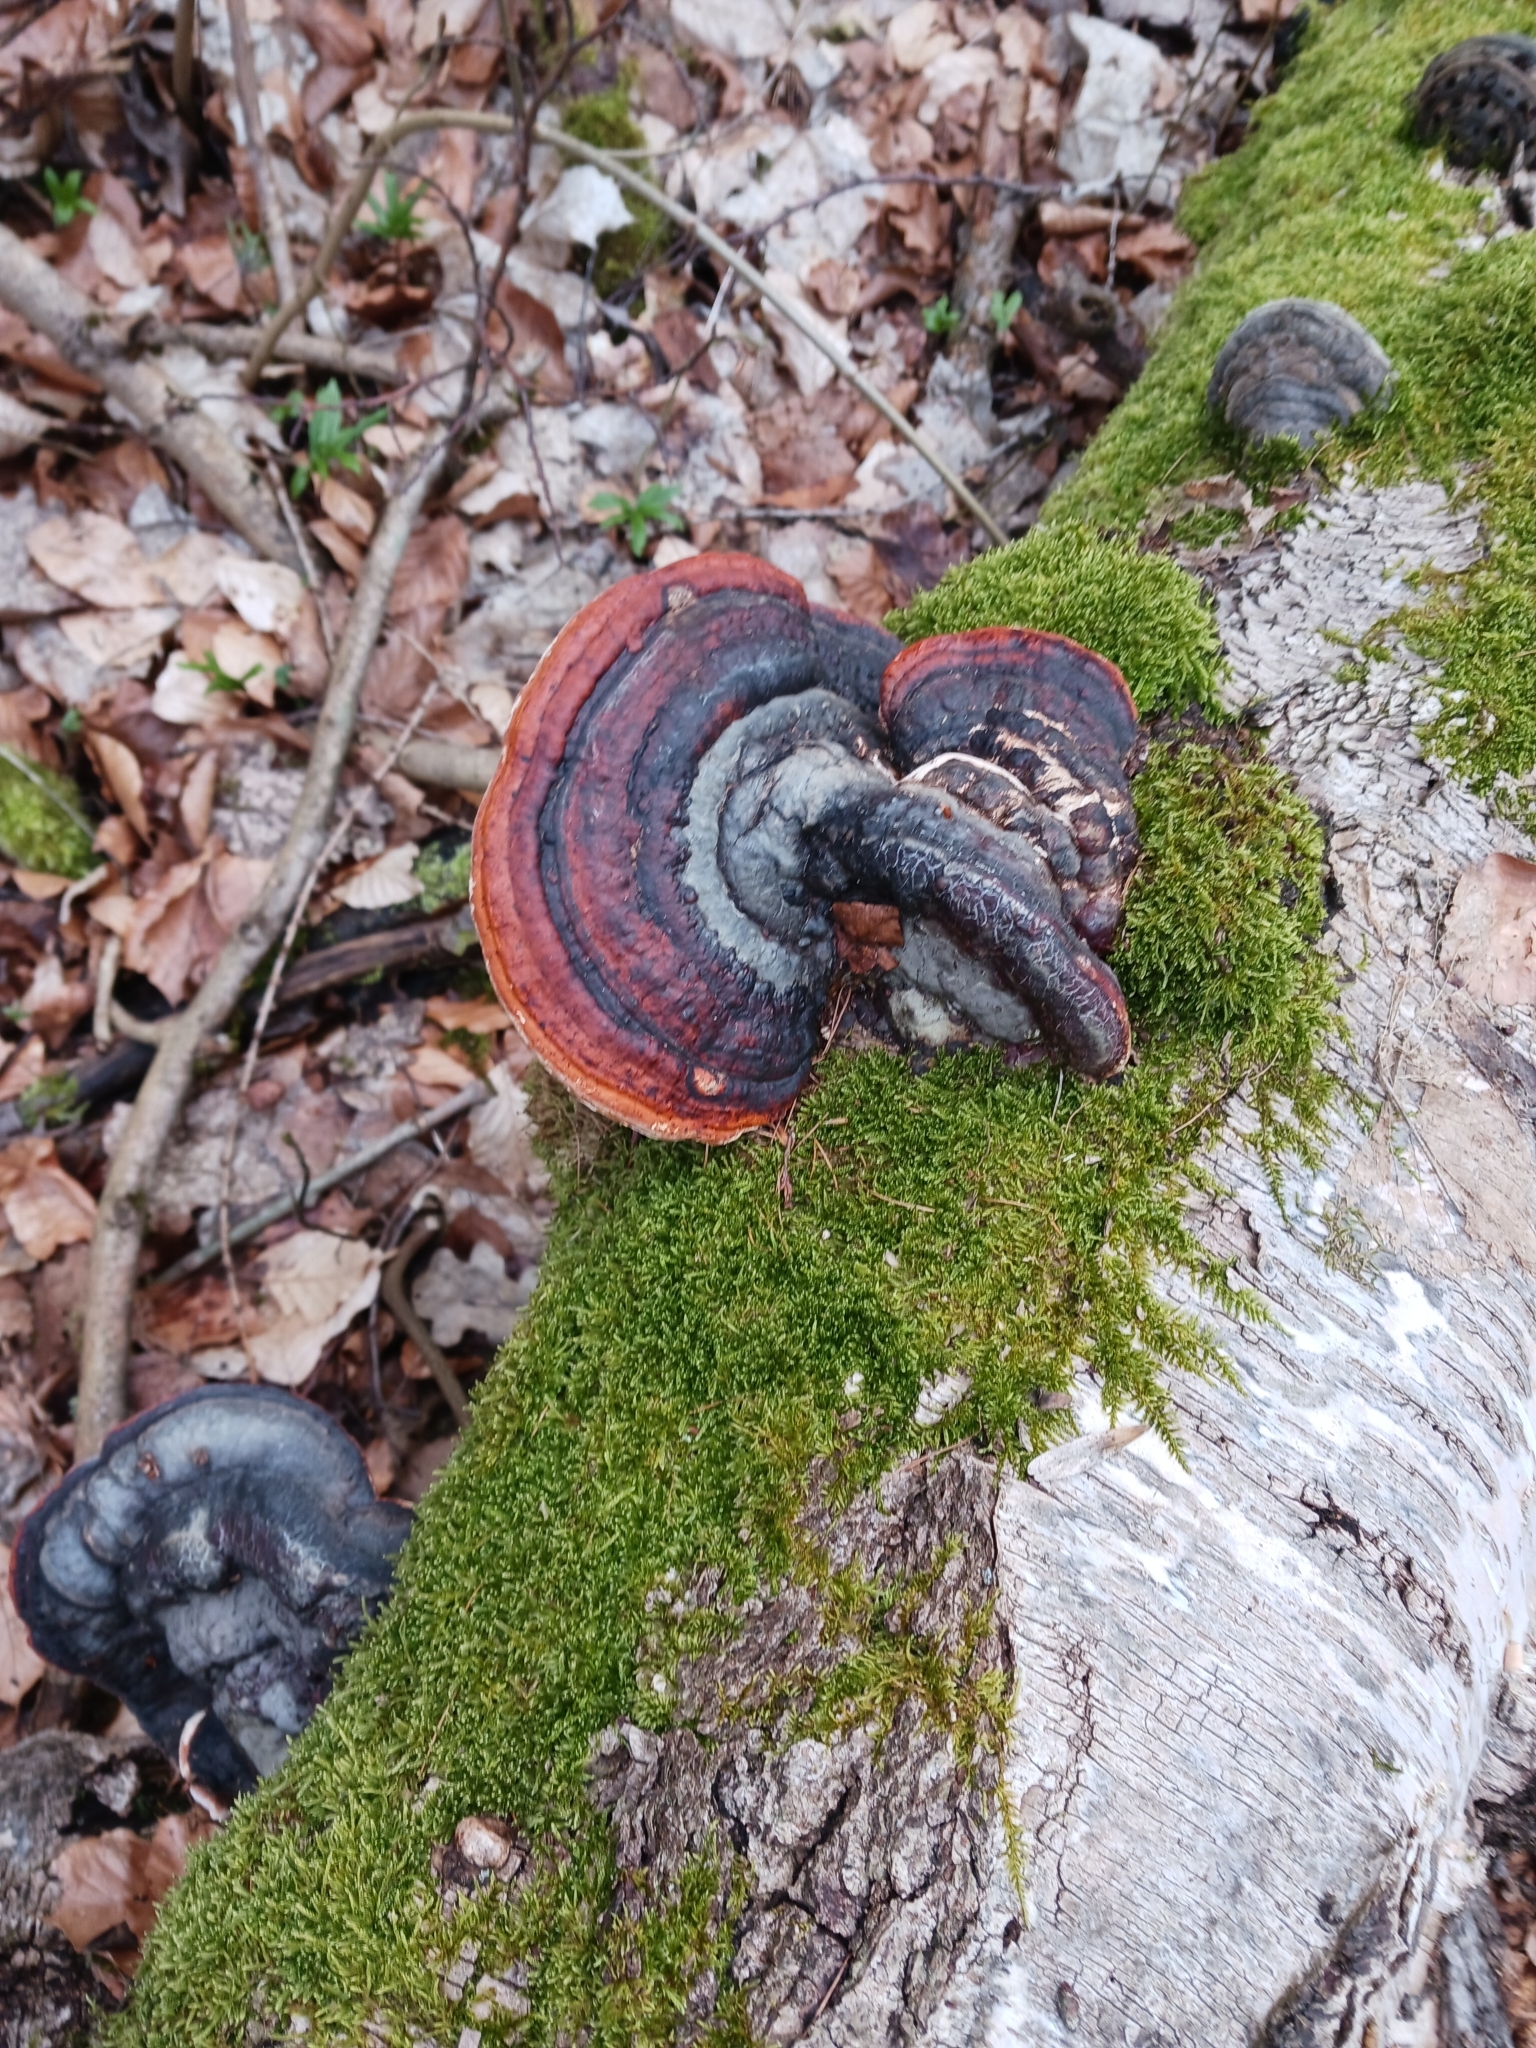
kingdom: Fungi
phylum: Basidiomycota
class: Agaricomycetes
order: Polyporales
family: Fomitopsidaceae
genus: Fomitopsis
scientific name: Fomitopsis pinicola
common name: Red-belted bracket
